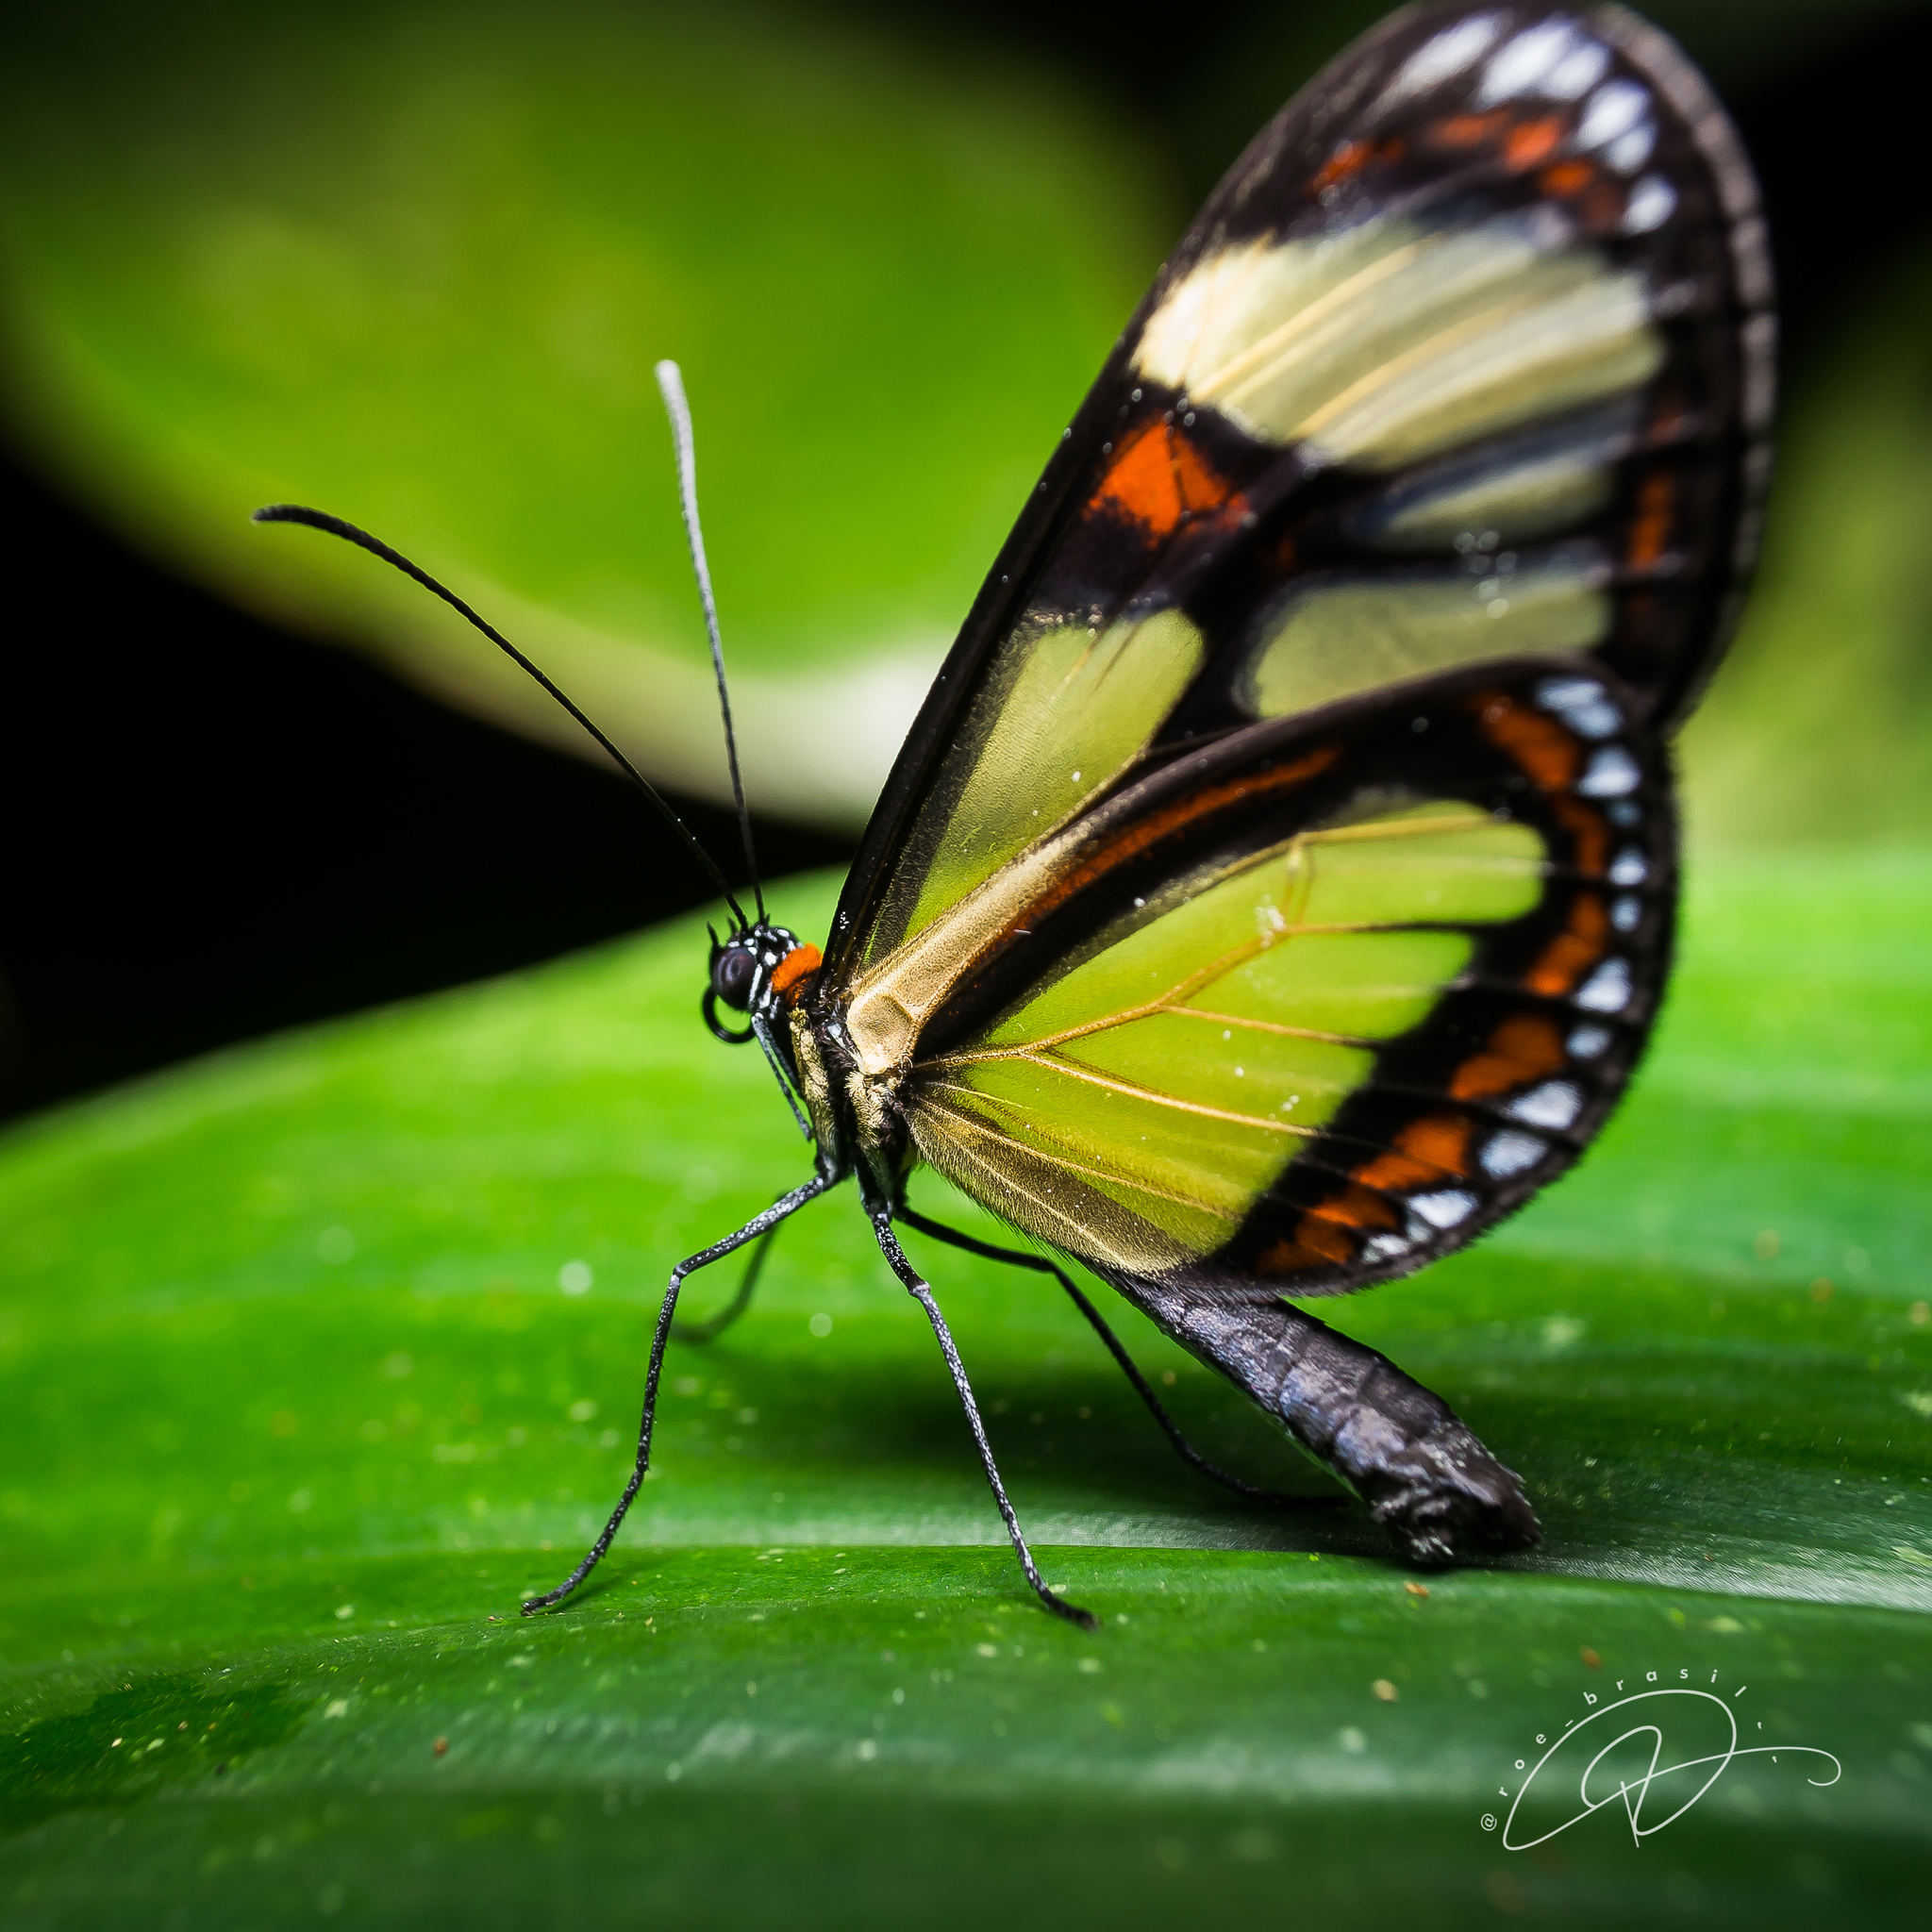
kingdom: Animalia
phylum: Arthropoda
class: Insecta
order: Lepidoptera
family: Nymphalidae
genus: Epityches
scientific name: Epityches eupompe
